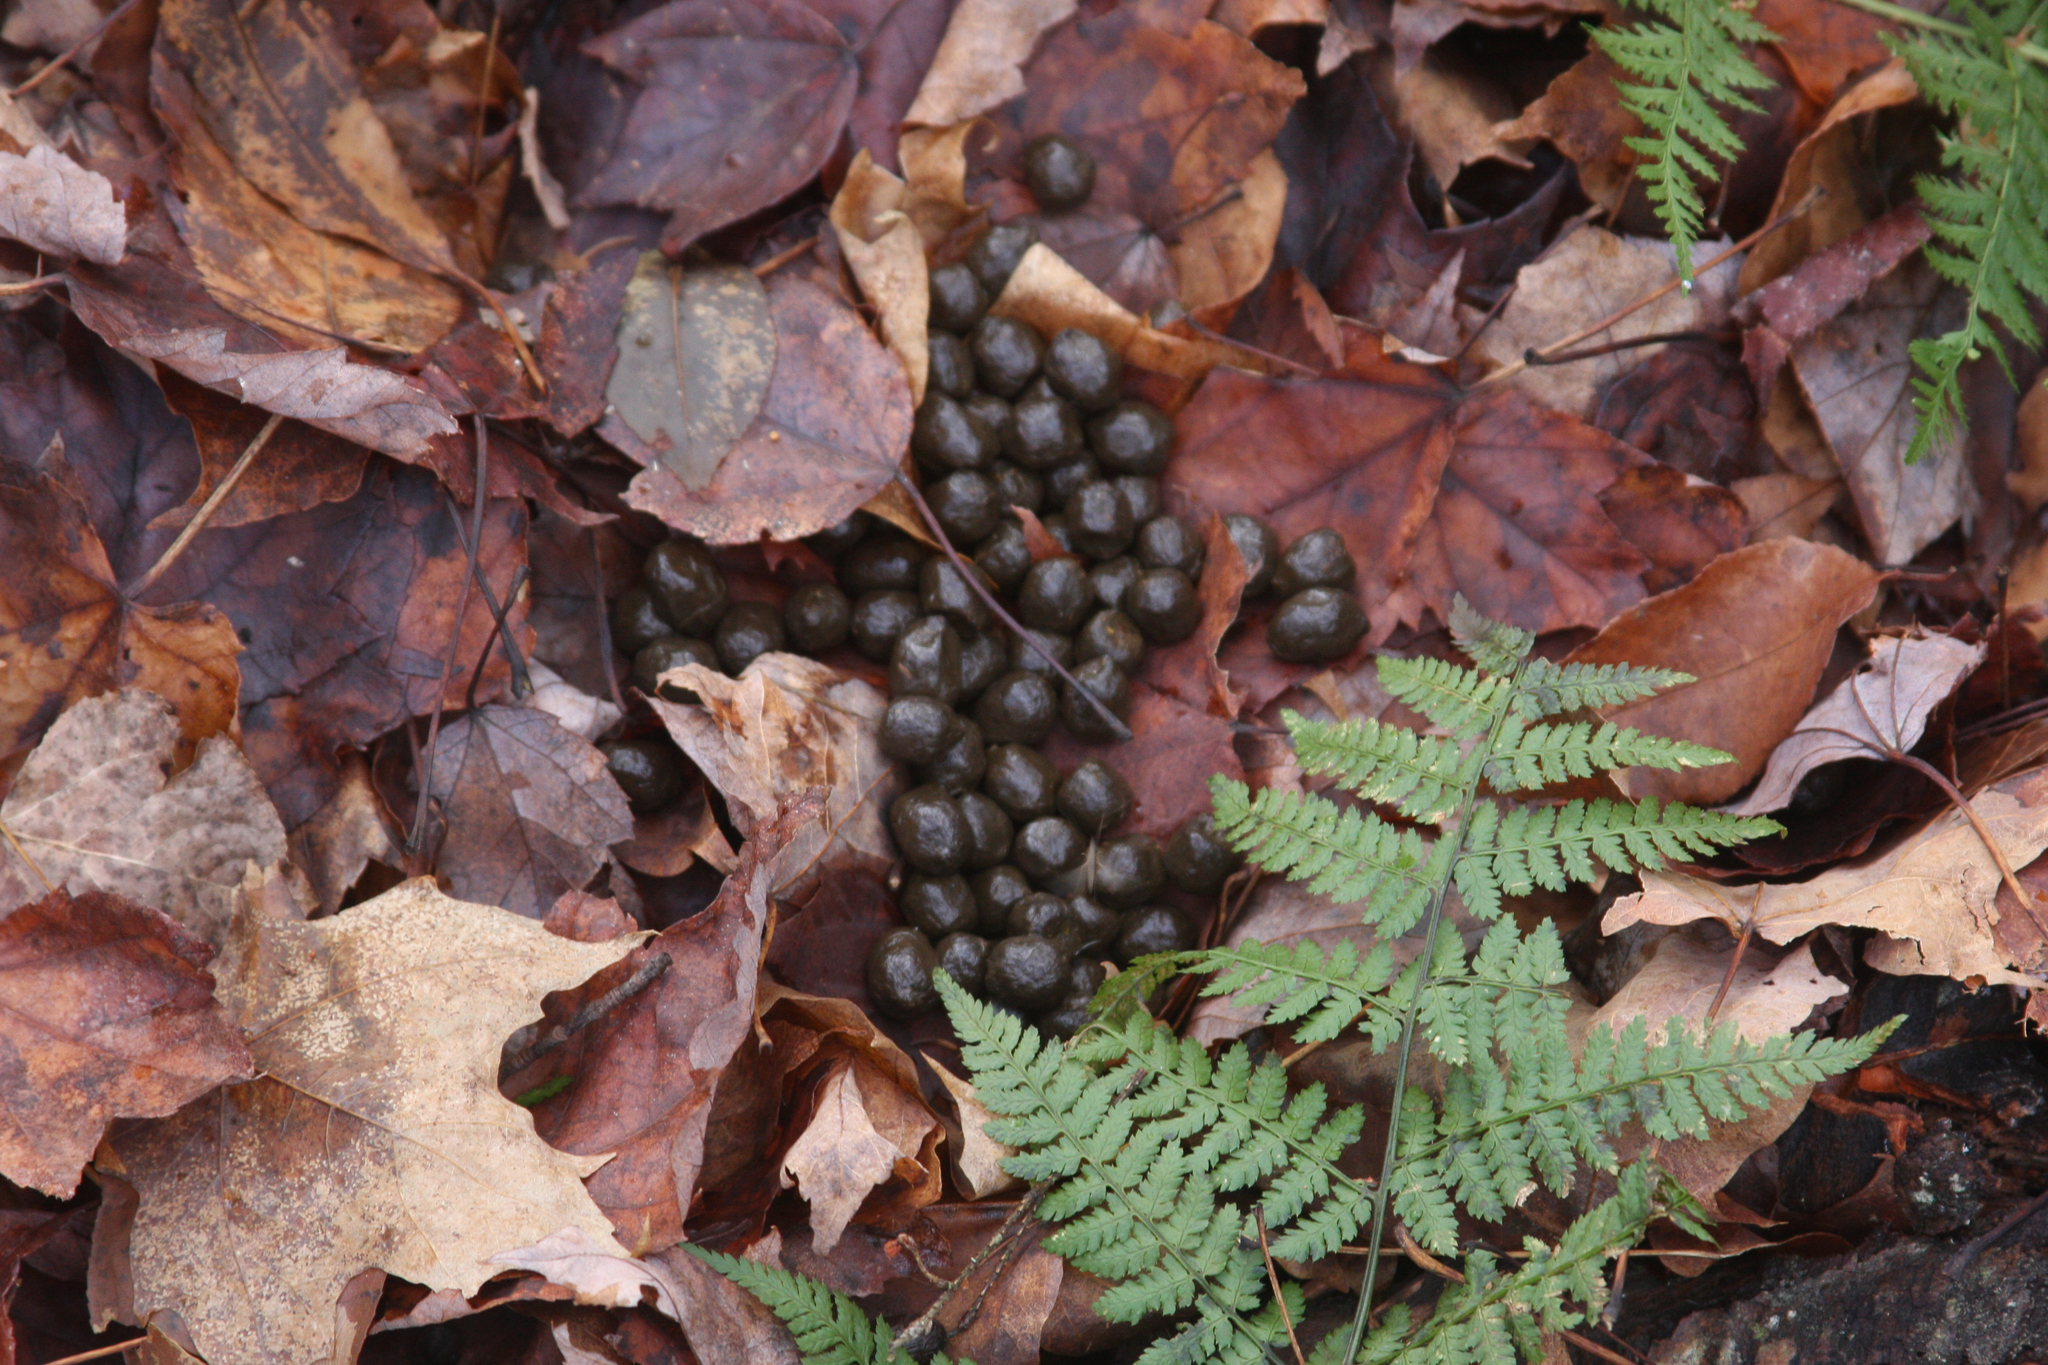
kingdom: Animalia
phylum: Chordata
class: Mammalia
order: Artiodactyla
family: Cervidae
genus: Odocoileus
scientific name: Odocoileus virginianus
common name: White-tailed deer
